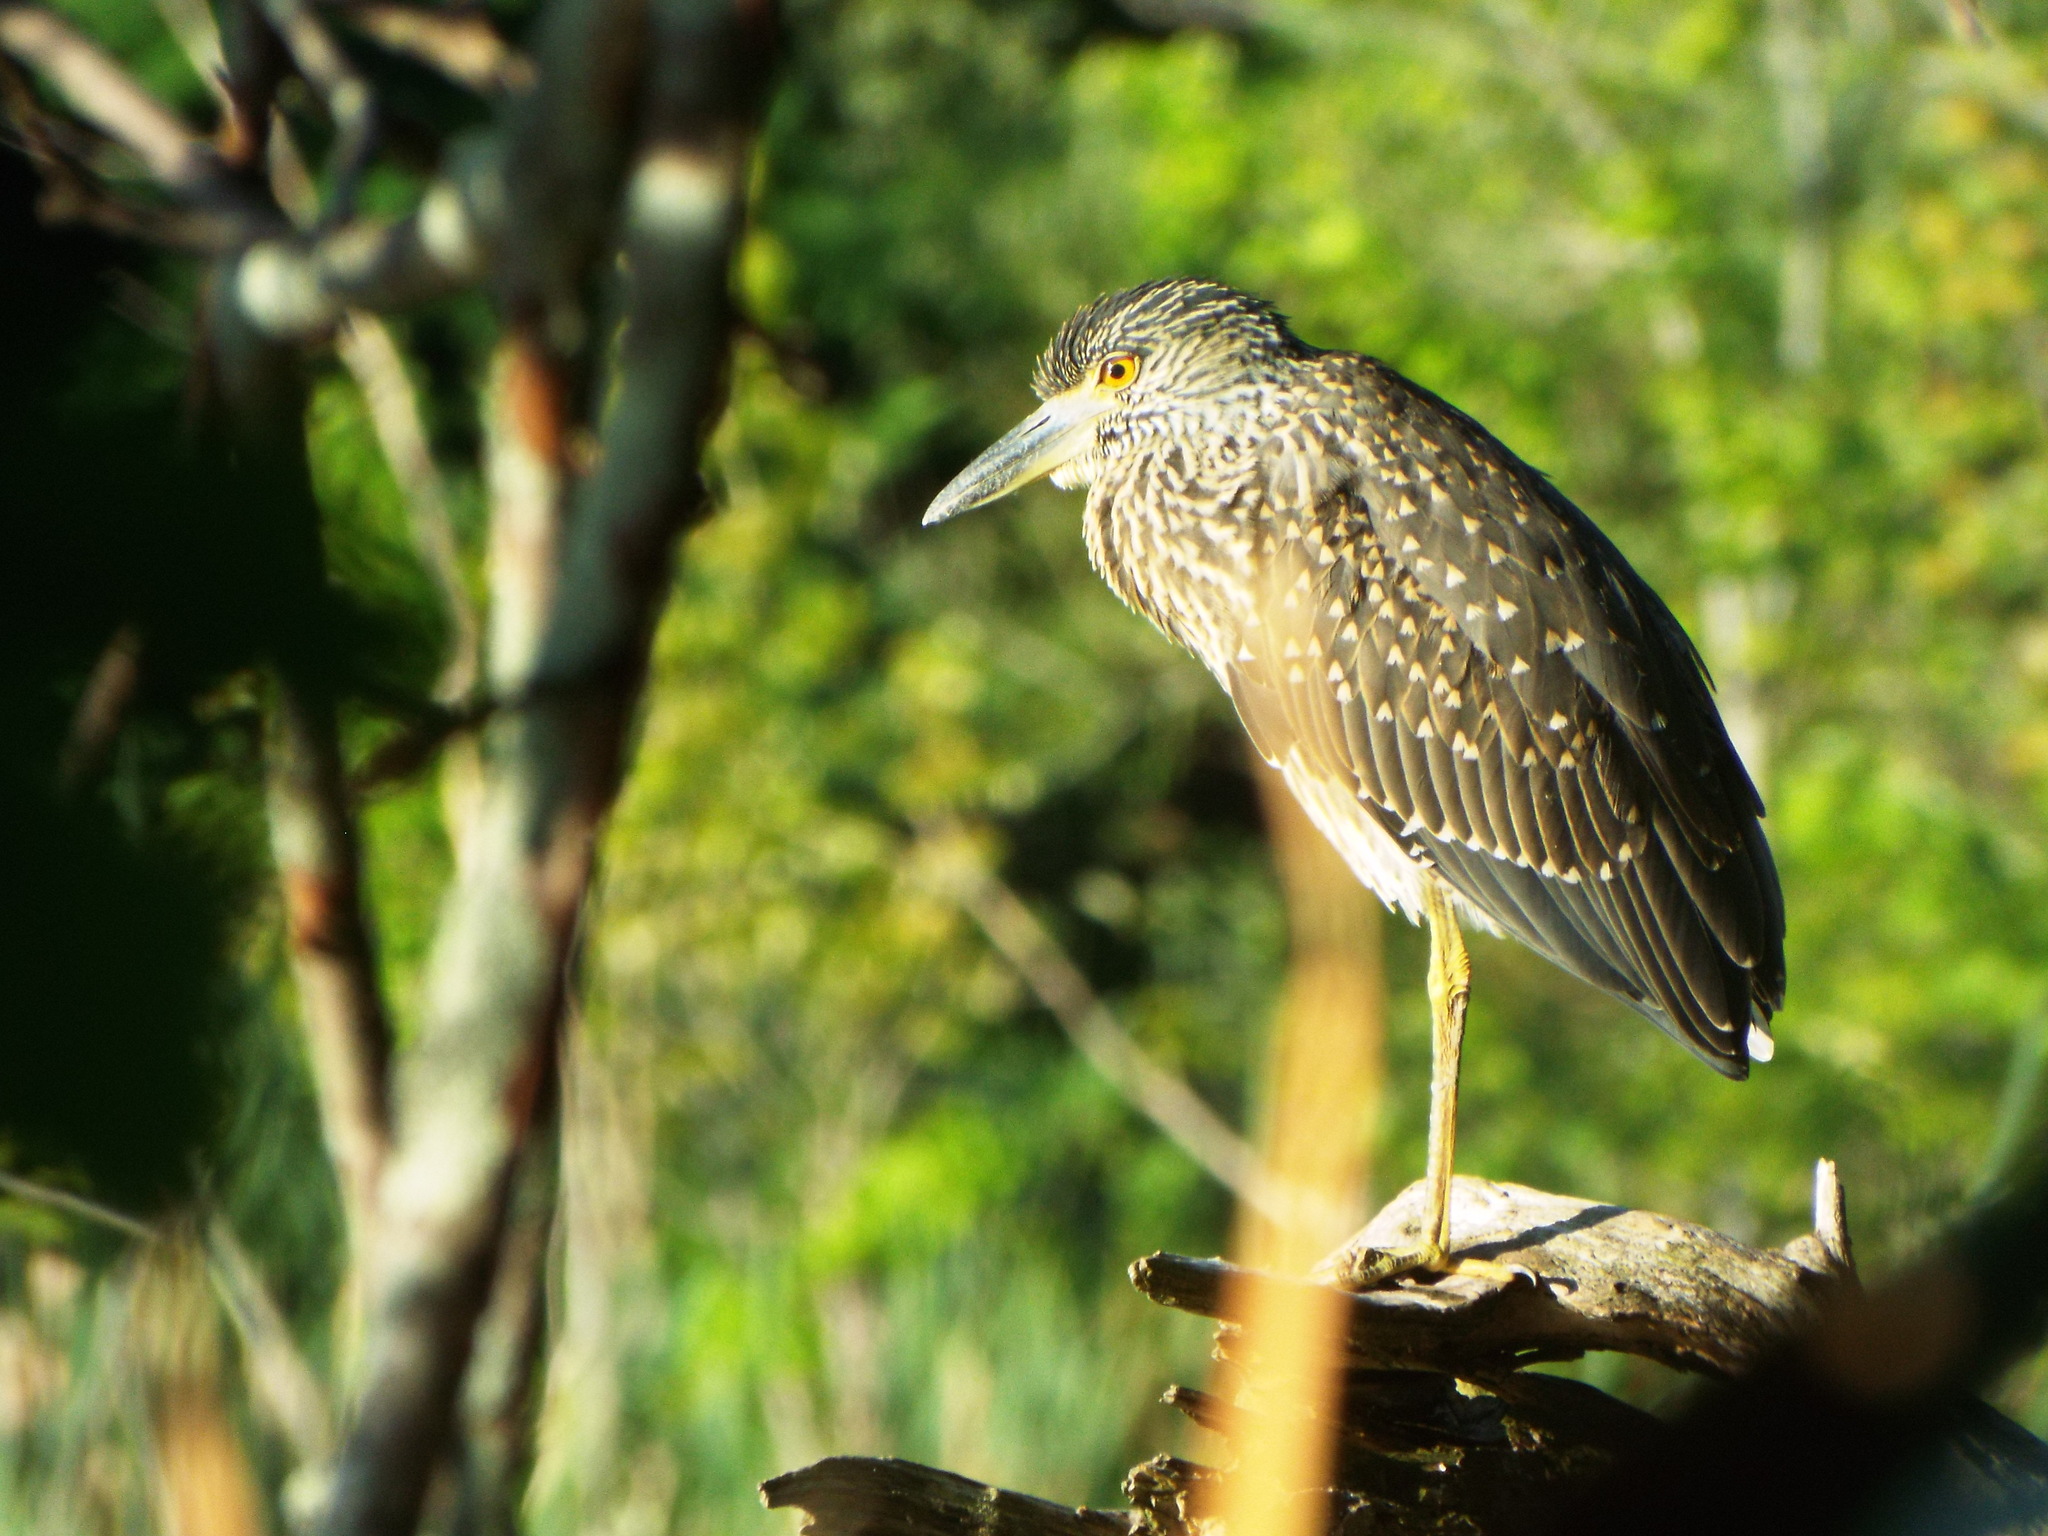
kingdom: Animalia
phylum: Chordata
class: Aves
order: Pelecaniformes
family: Ardeidae
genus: Nyctanassa
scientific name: Nyctanassa violacea
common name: Yellow-crowned night heron
